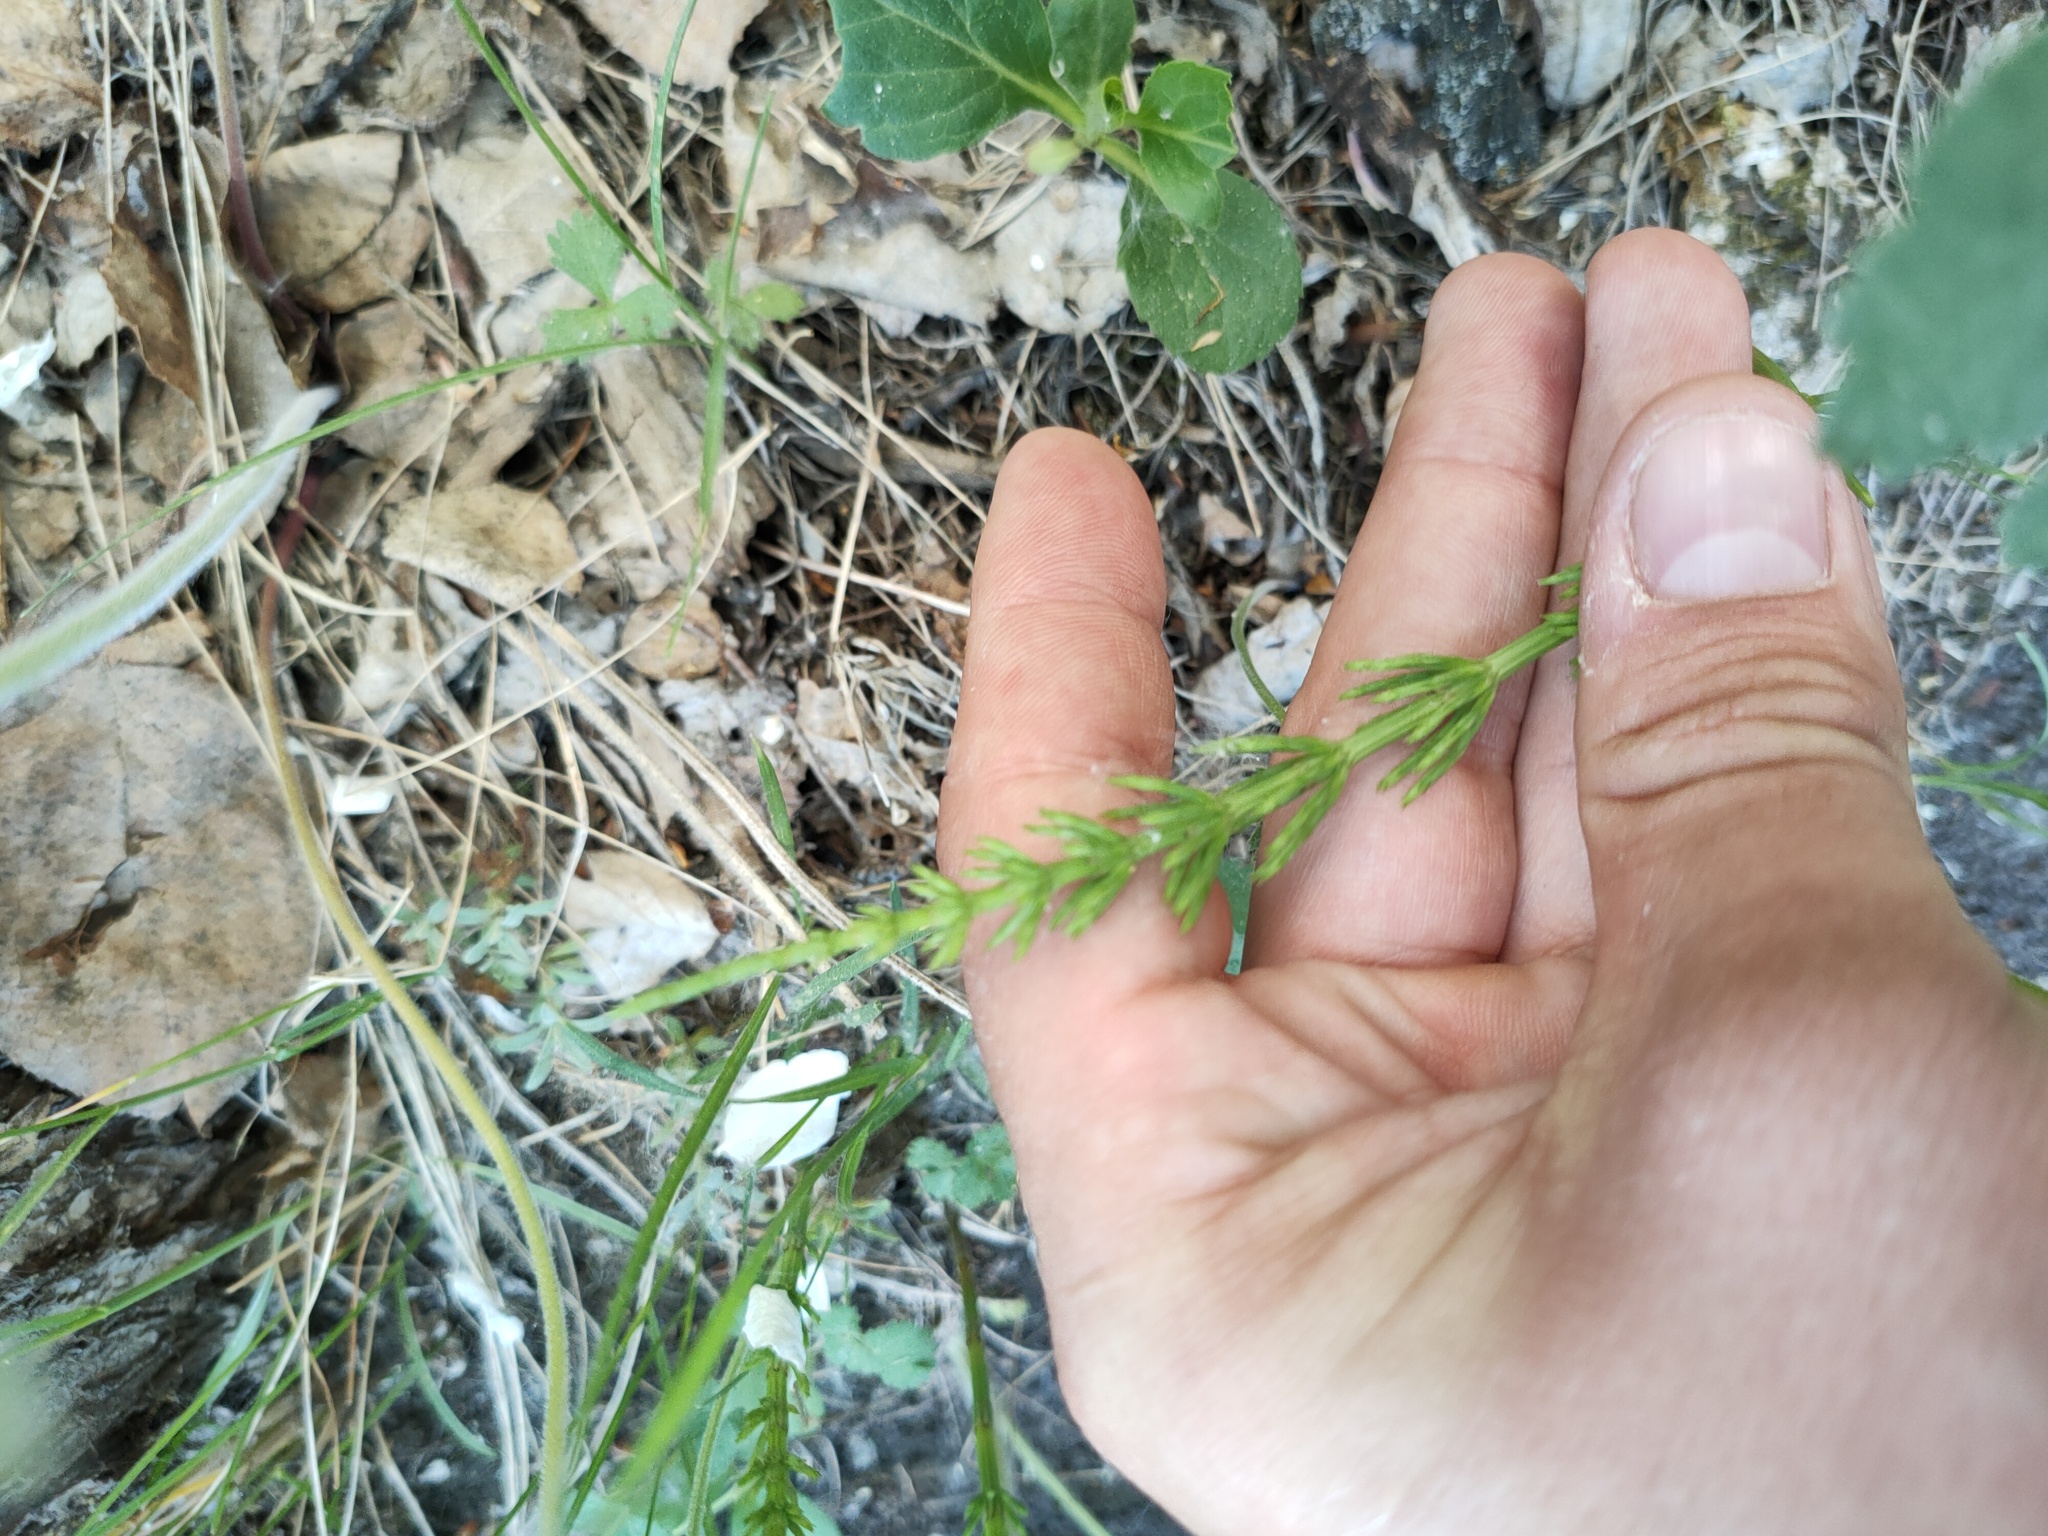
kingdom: Plantae
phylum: Tracheophyta
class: Polypodiopsida
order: Equisetales
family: Equisetaceae
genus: Equisetum
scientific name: Equisetum arvense
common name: Field horsetail
